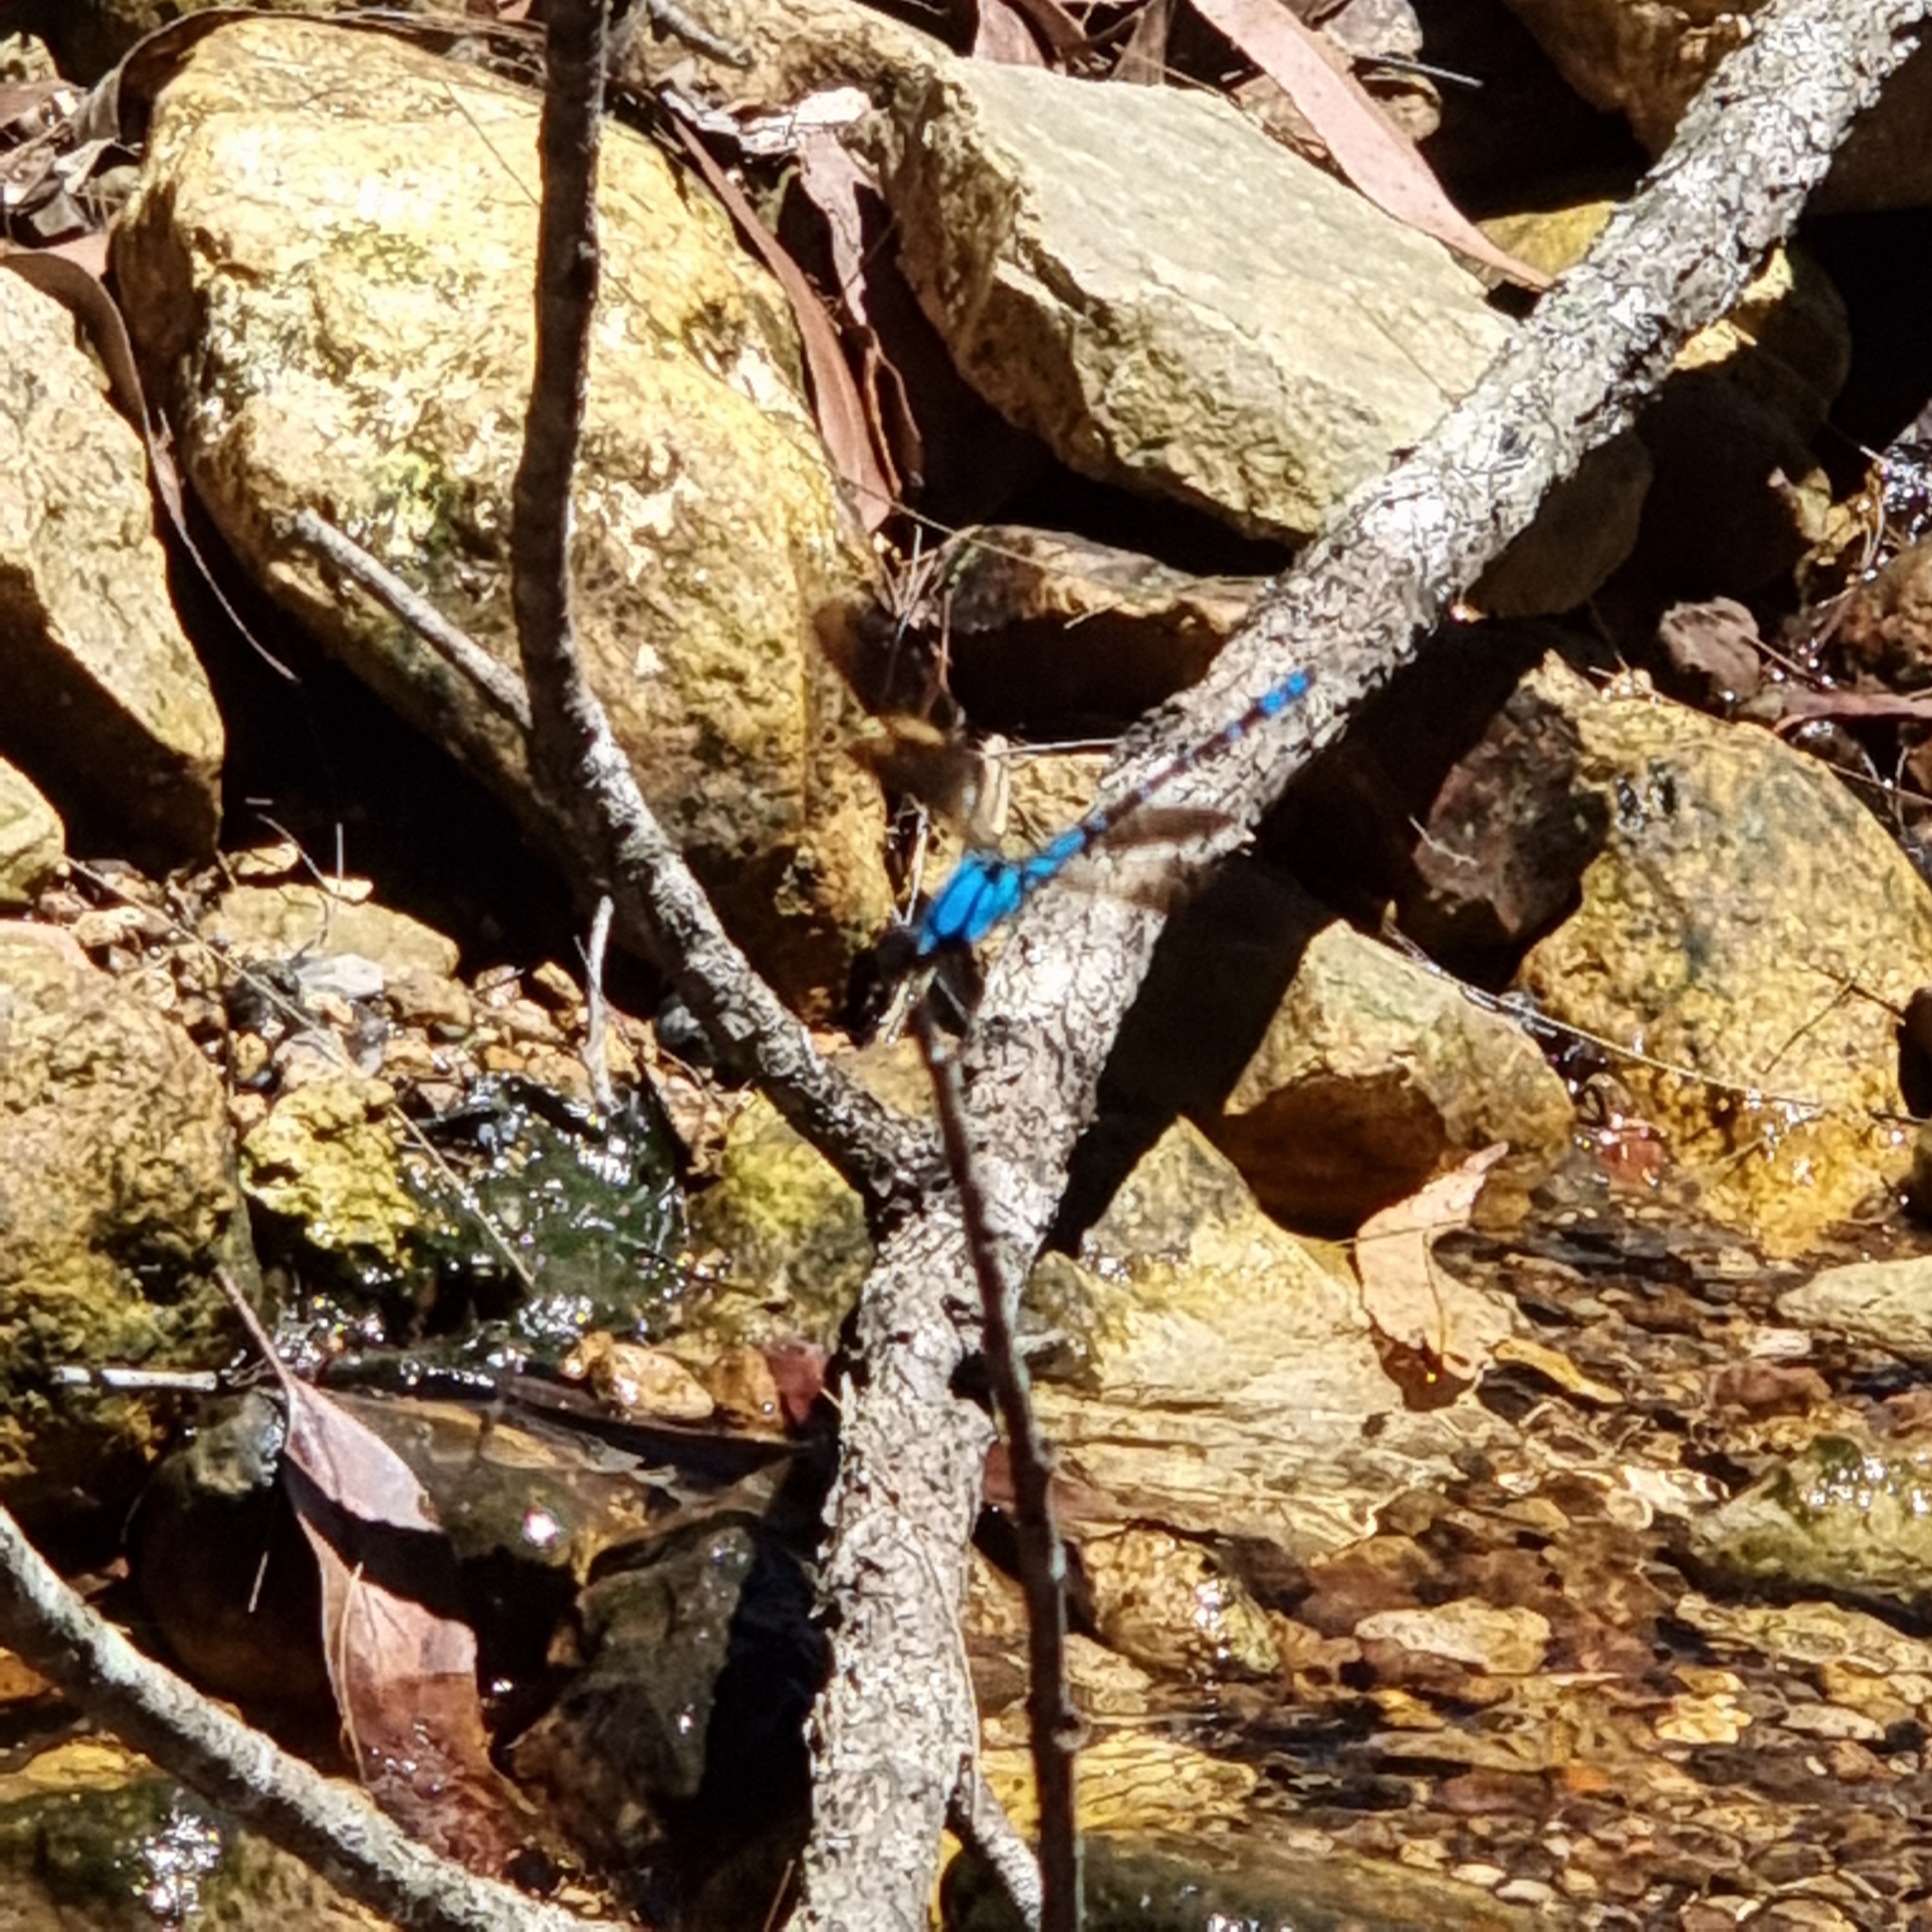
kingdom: Animalia
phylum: Arthropoda
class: Insecta
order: Odonata
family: Lestoideidae
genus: Diphlebia
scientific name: Diphlebia coerulescens
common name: Sapphire rockmaster
